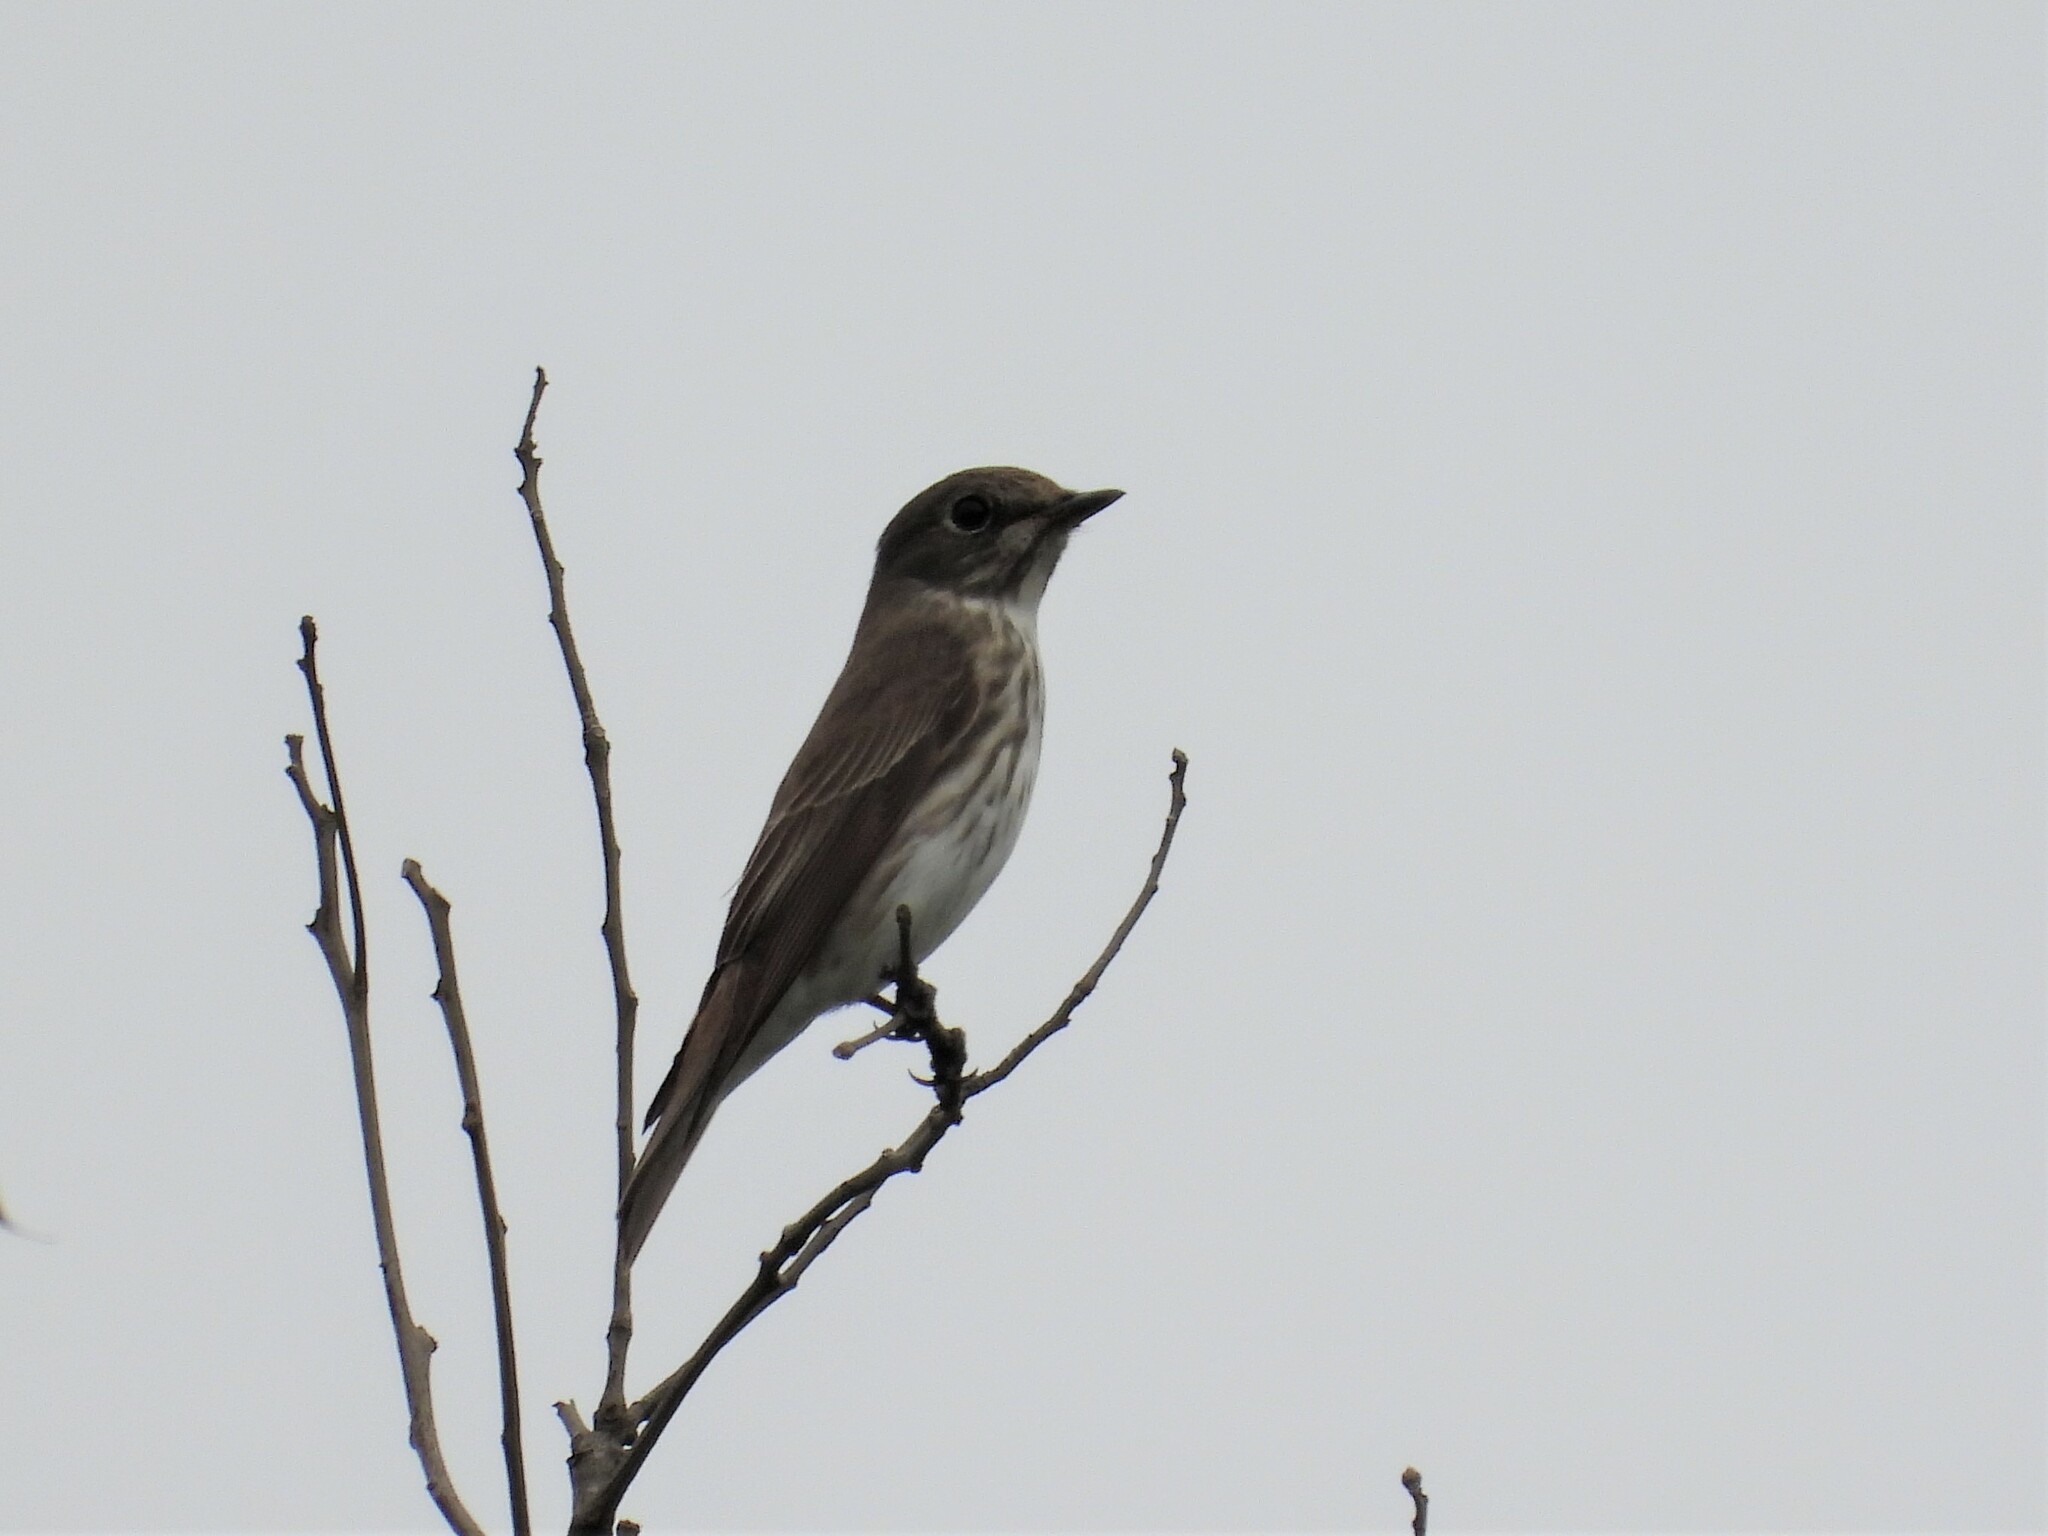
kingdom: Animalia
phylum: Chordata
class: Aves
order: Passeriformes
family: Muscicapidae
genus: Muscicapa
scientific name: Muscicapa griseisticta
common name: Gray-streaked flycatcher
